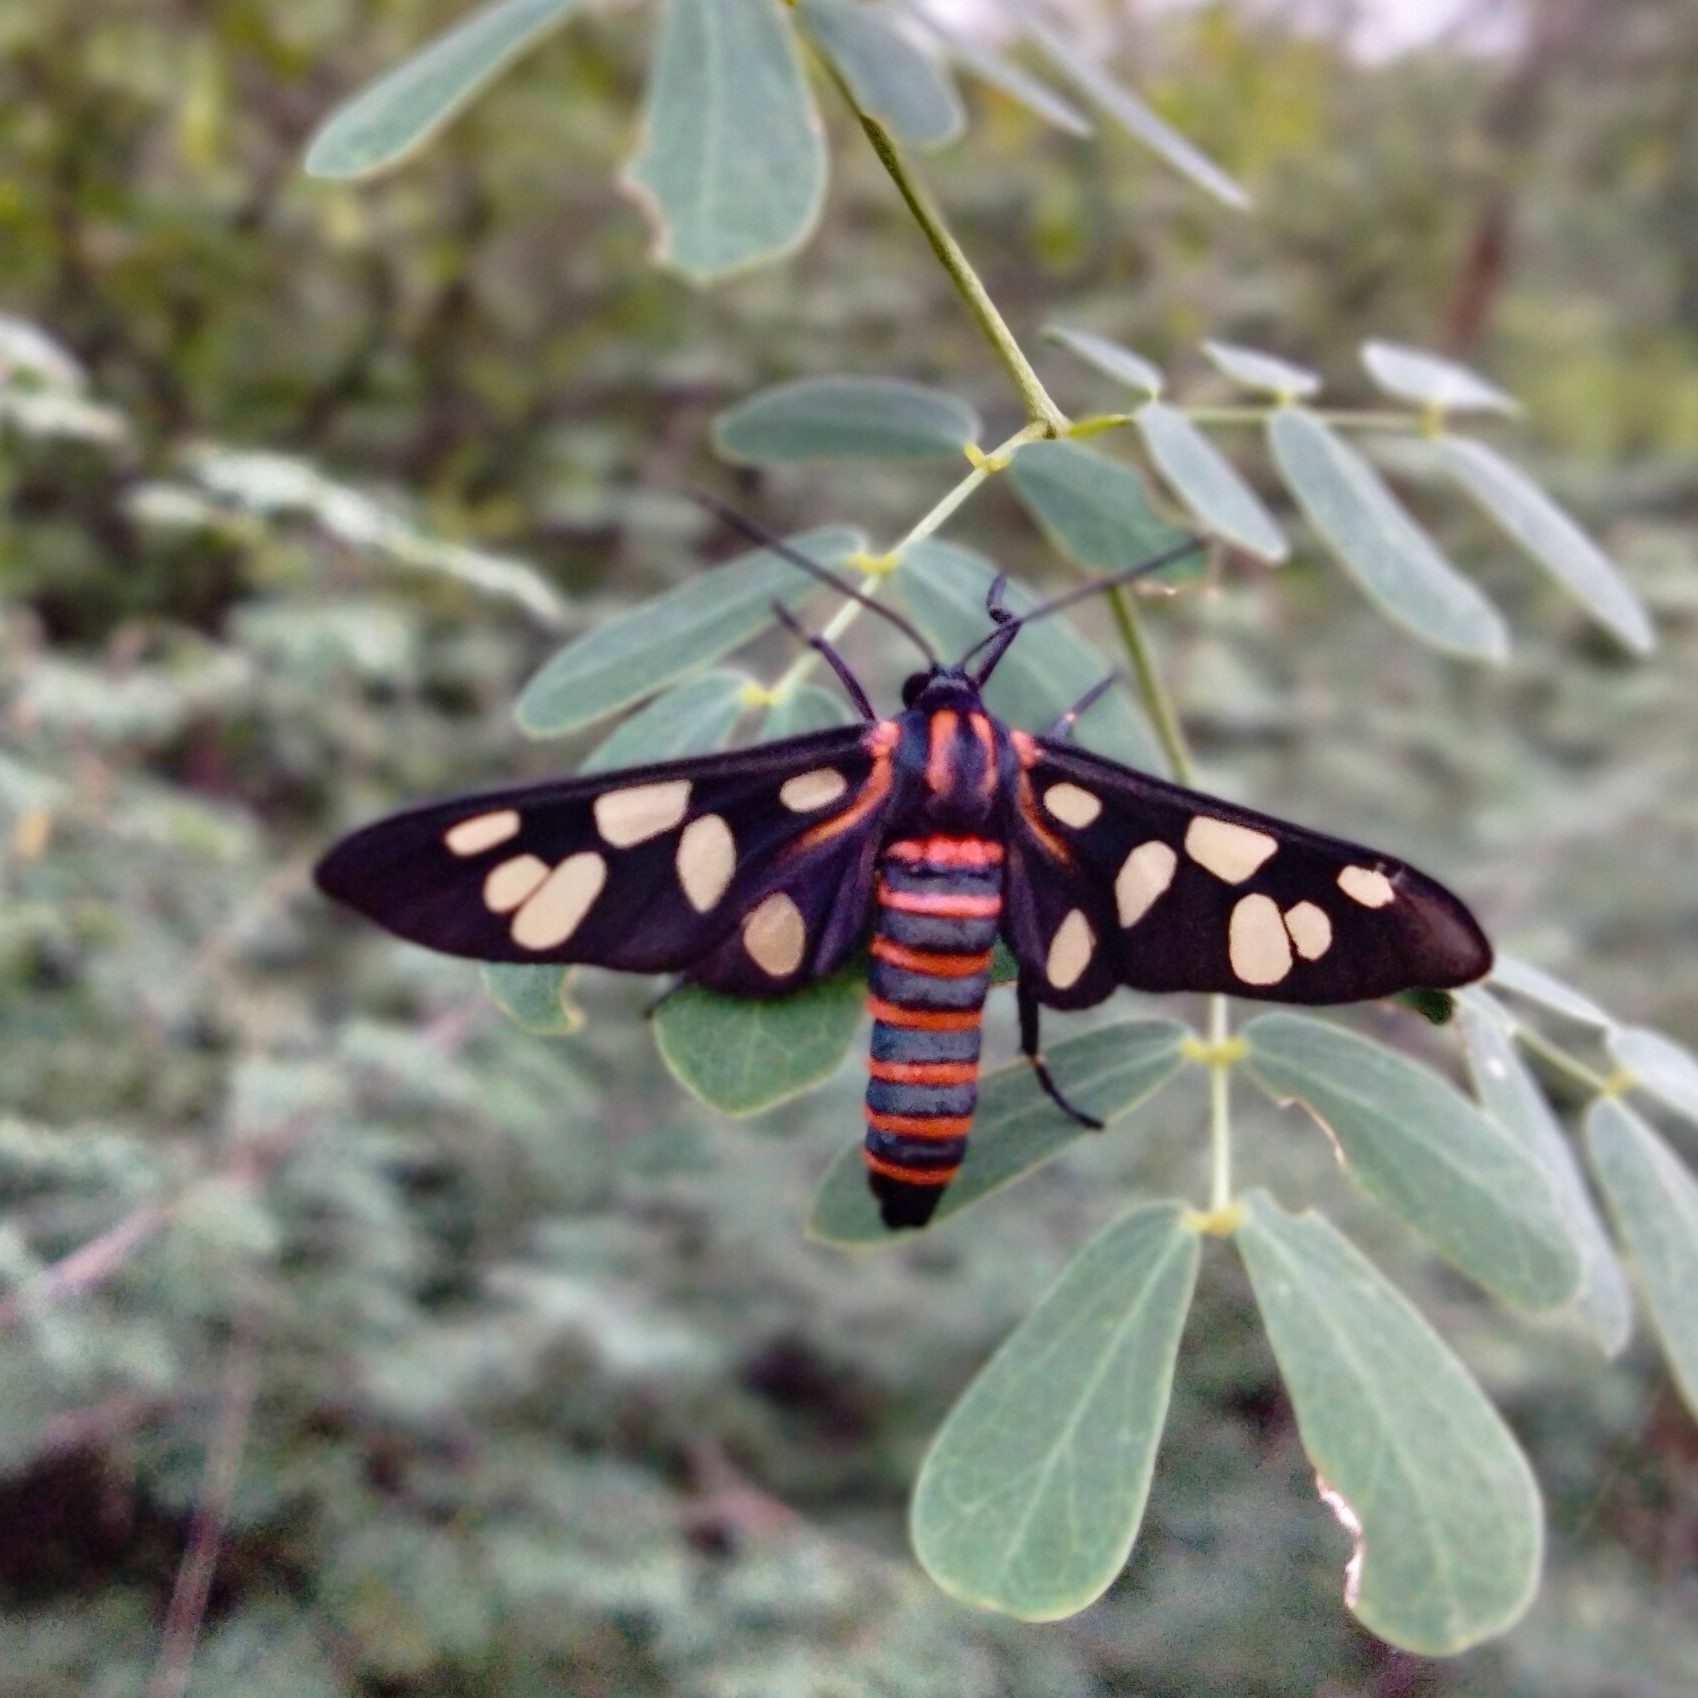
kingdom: Animalia
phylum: Arthropoda
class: Insecta
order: Lepidoptera
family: Erebidae
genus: Amata
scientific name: Amata passalis
